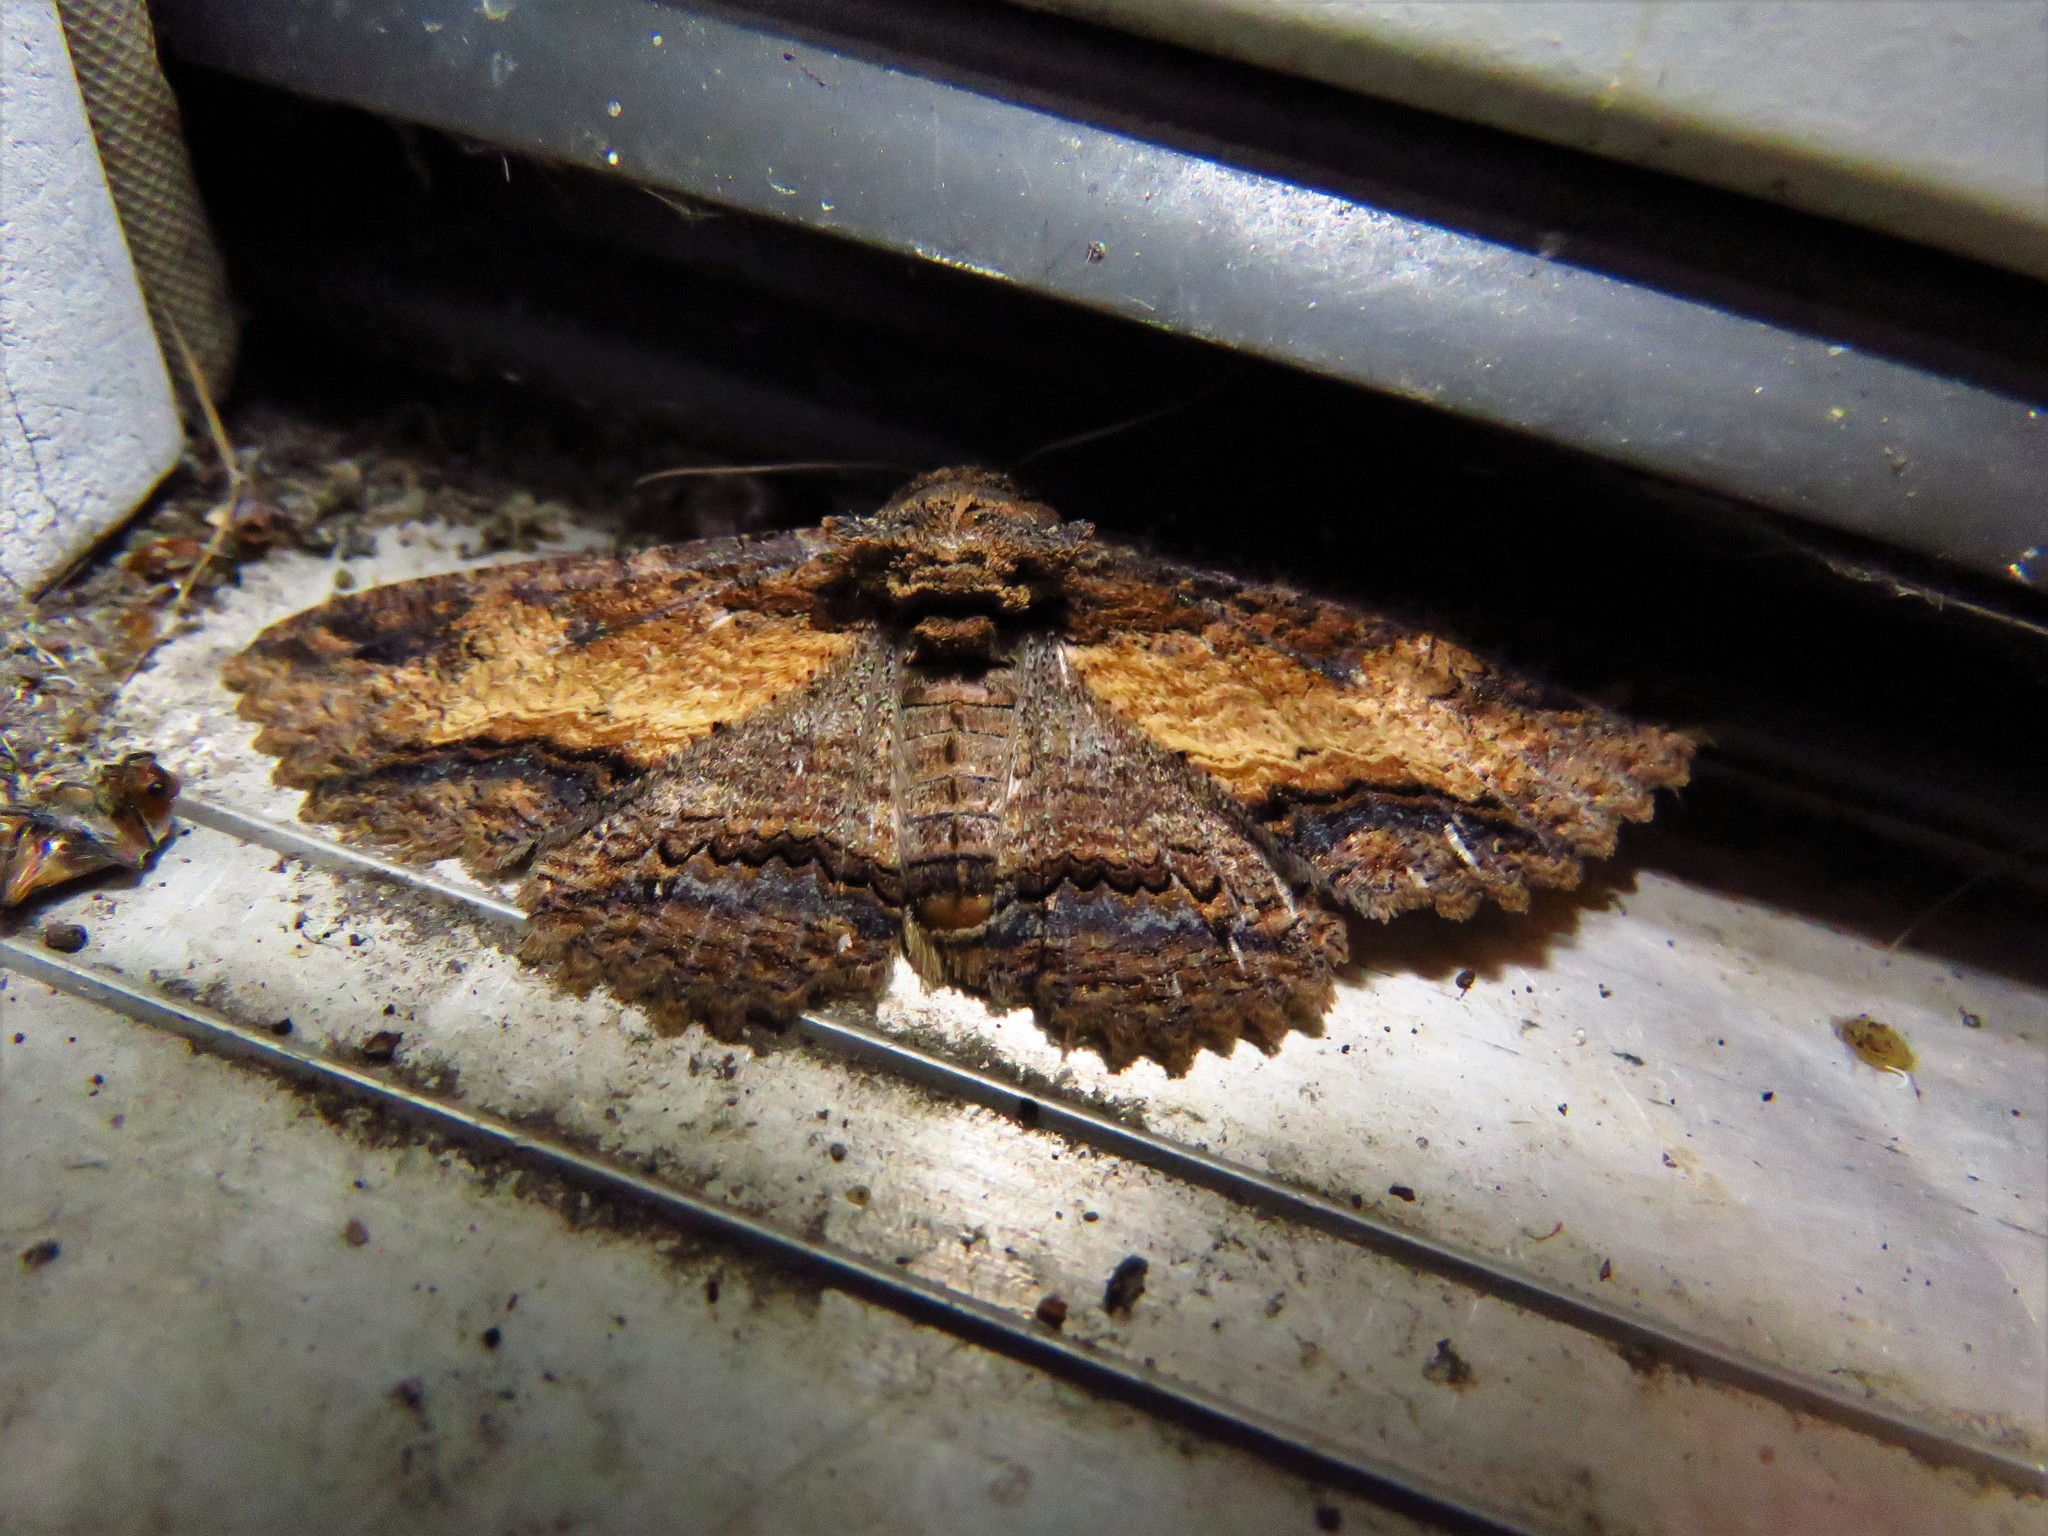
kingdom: Animalia
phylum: Arthropoda
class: Insecta
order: Lepidoptera
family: Erebidae
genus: Zale
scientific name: Zale lunata
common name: Lunate zale moth
